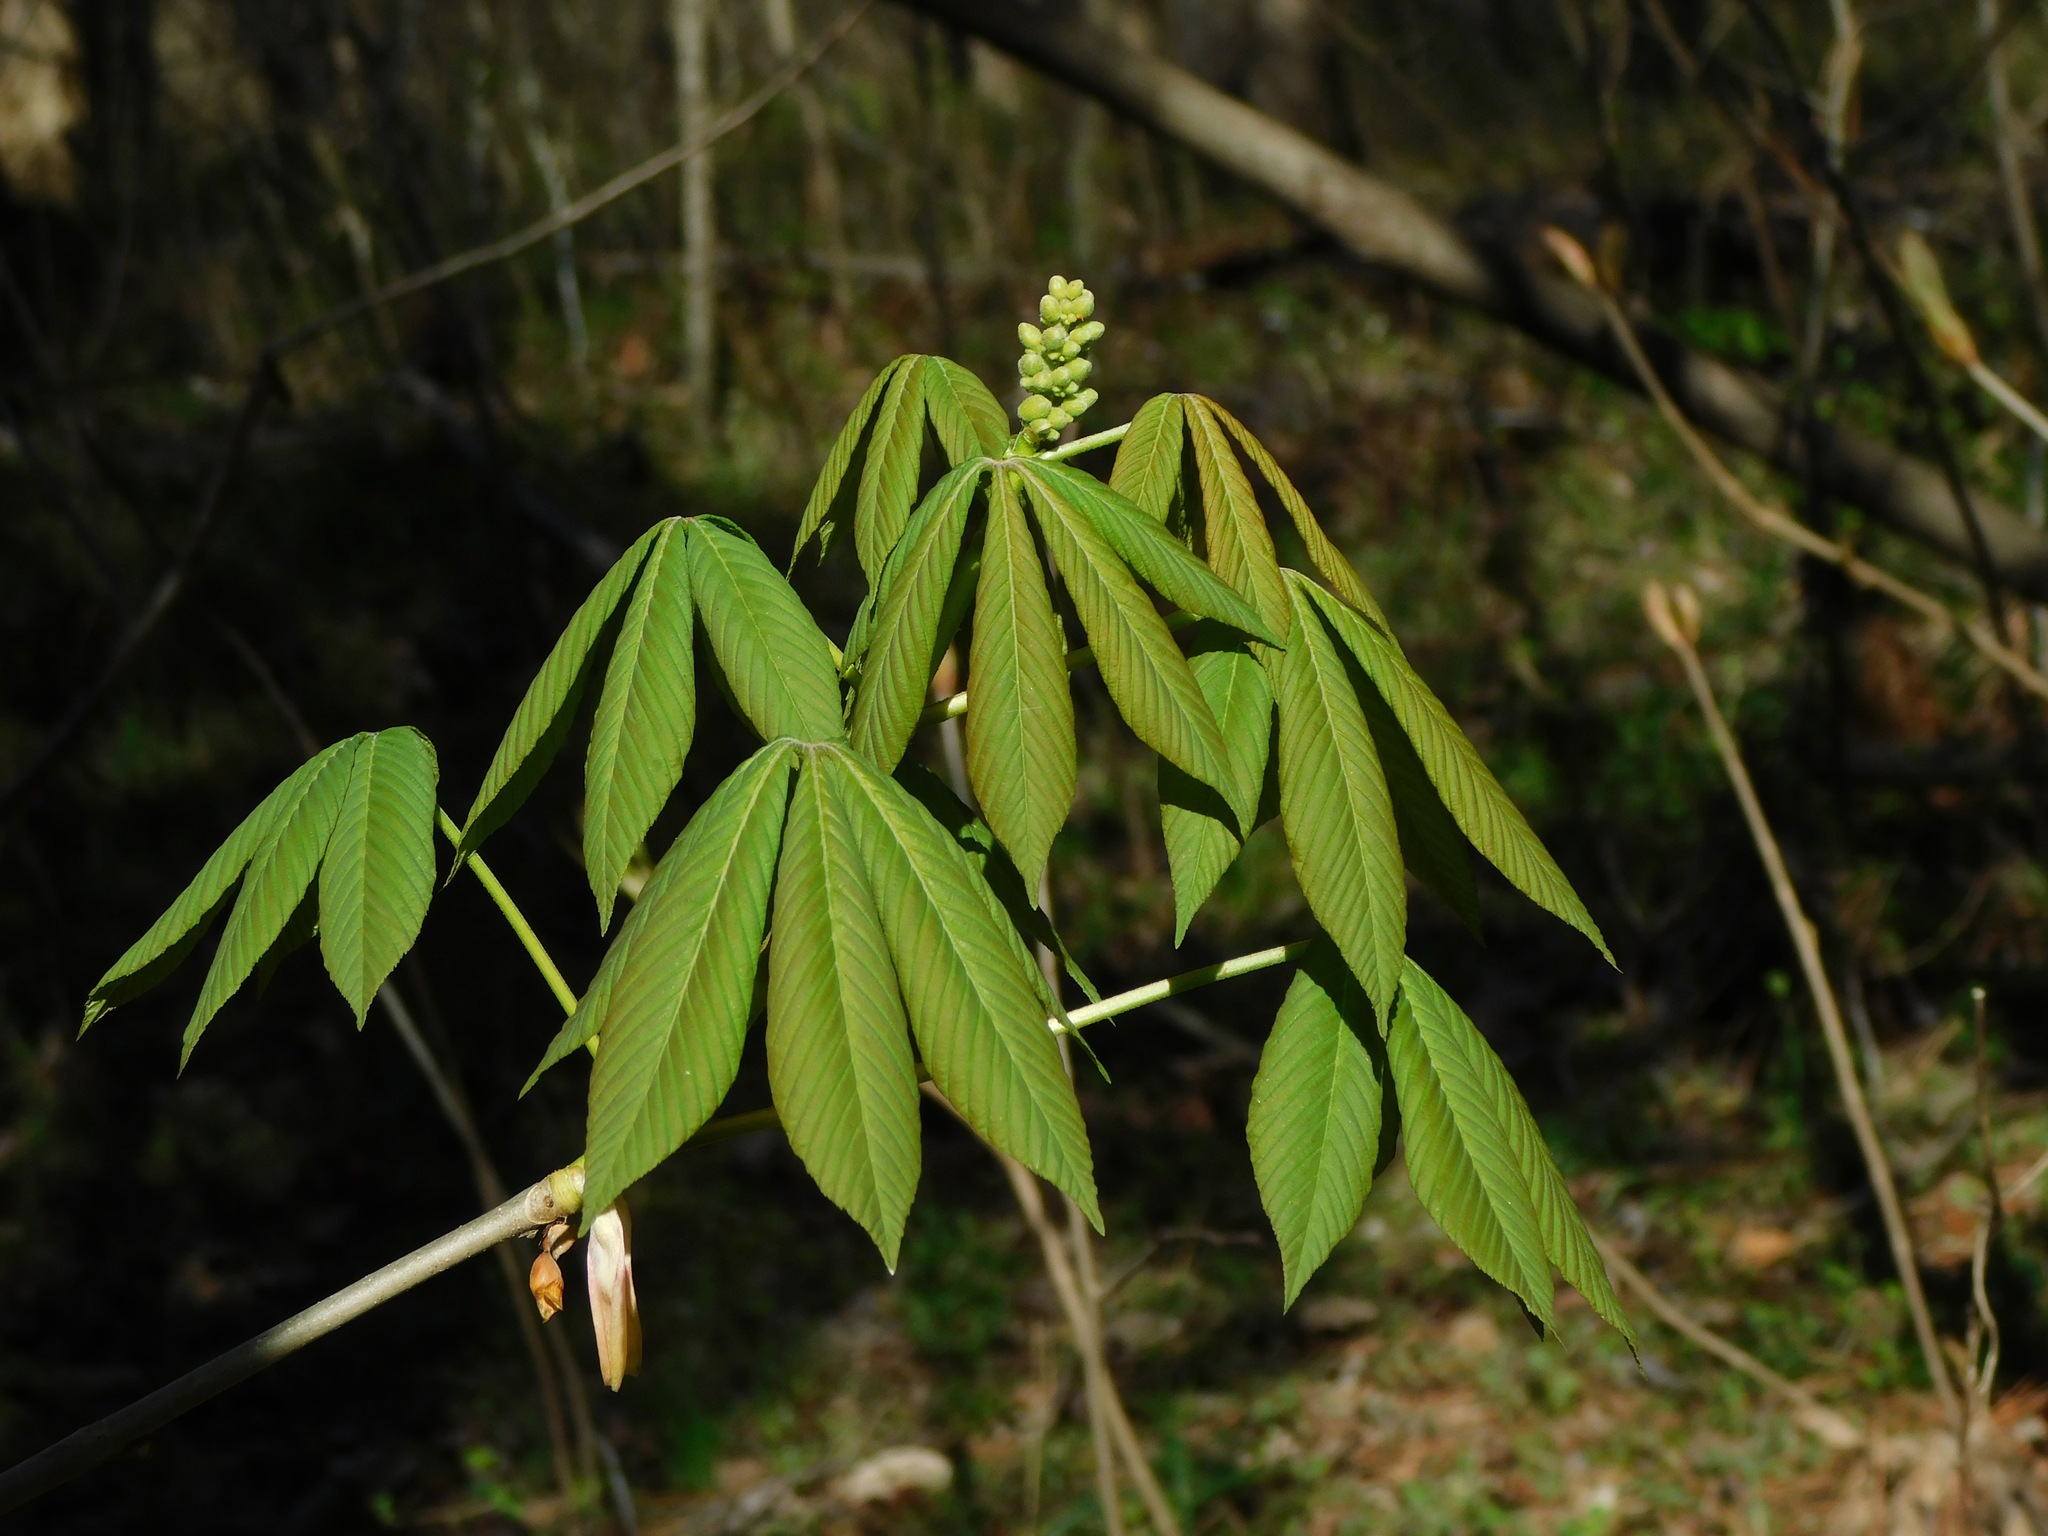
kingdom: Plantae
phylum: Tracheophyta
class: Magnoliopsida
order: Sapindales
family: Sapindaceae
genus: Aesculus
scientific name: Aesculus sylvatica
